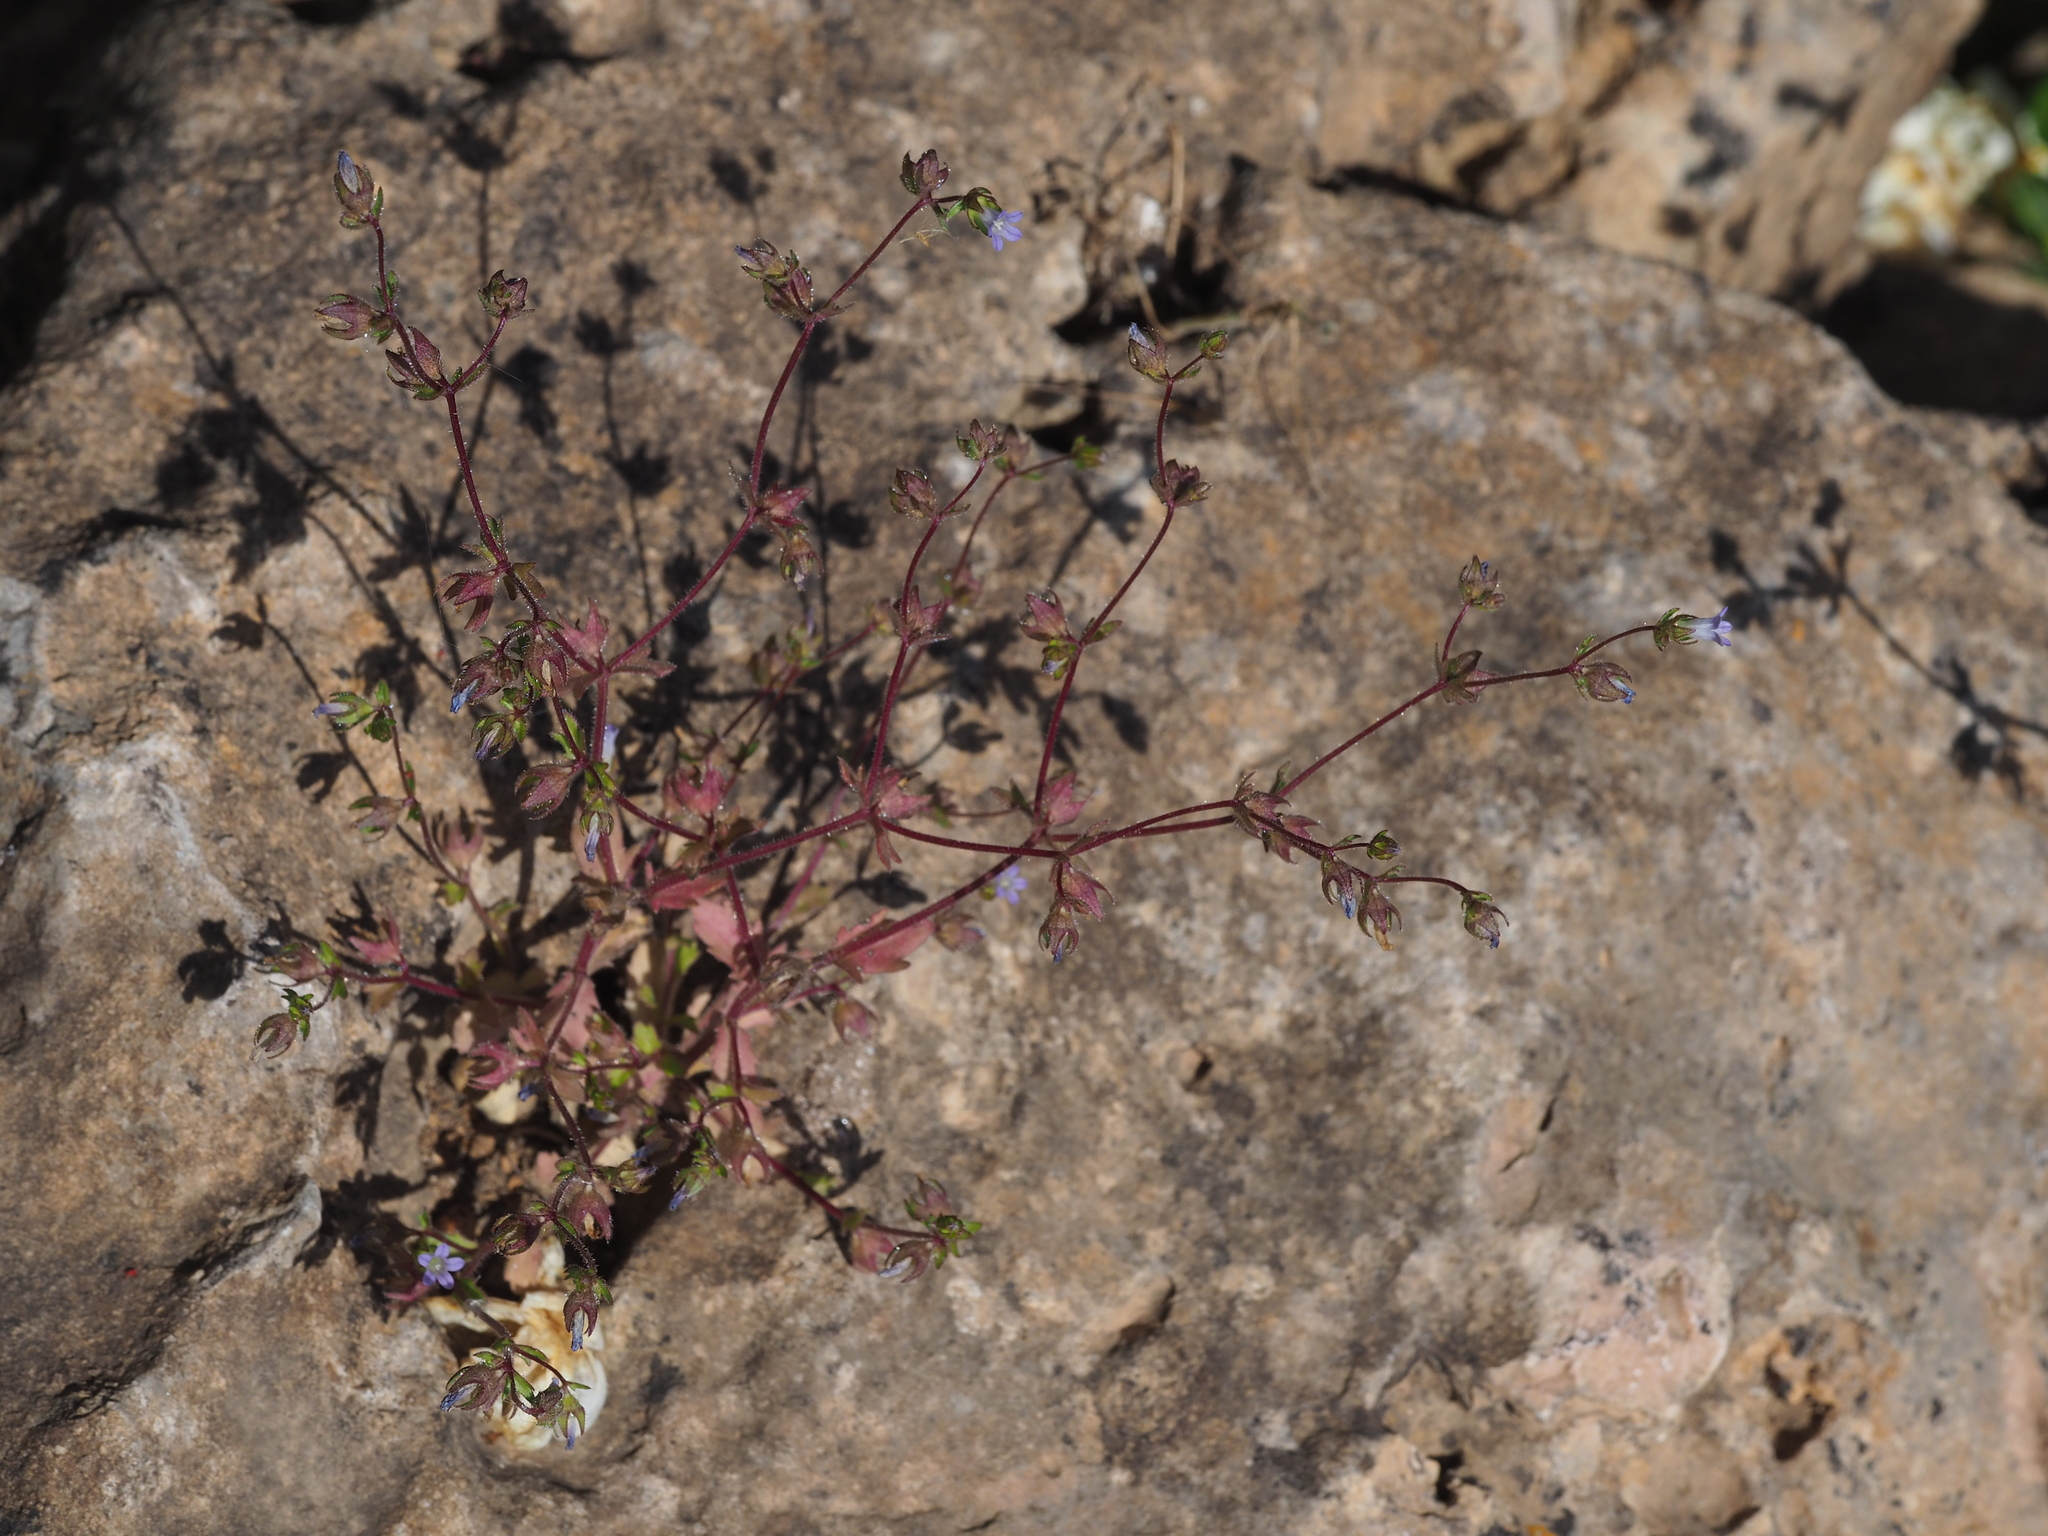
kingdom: Plantae
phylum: Tracheophyta
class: Magnoliopsida
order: Asterales
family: Campanulaceae
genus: Campanula
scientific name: Campanula erinus
